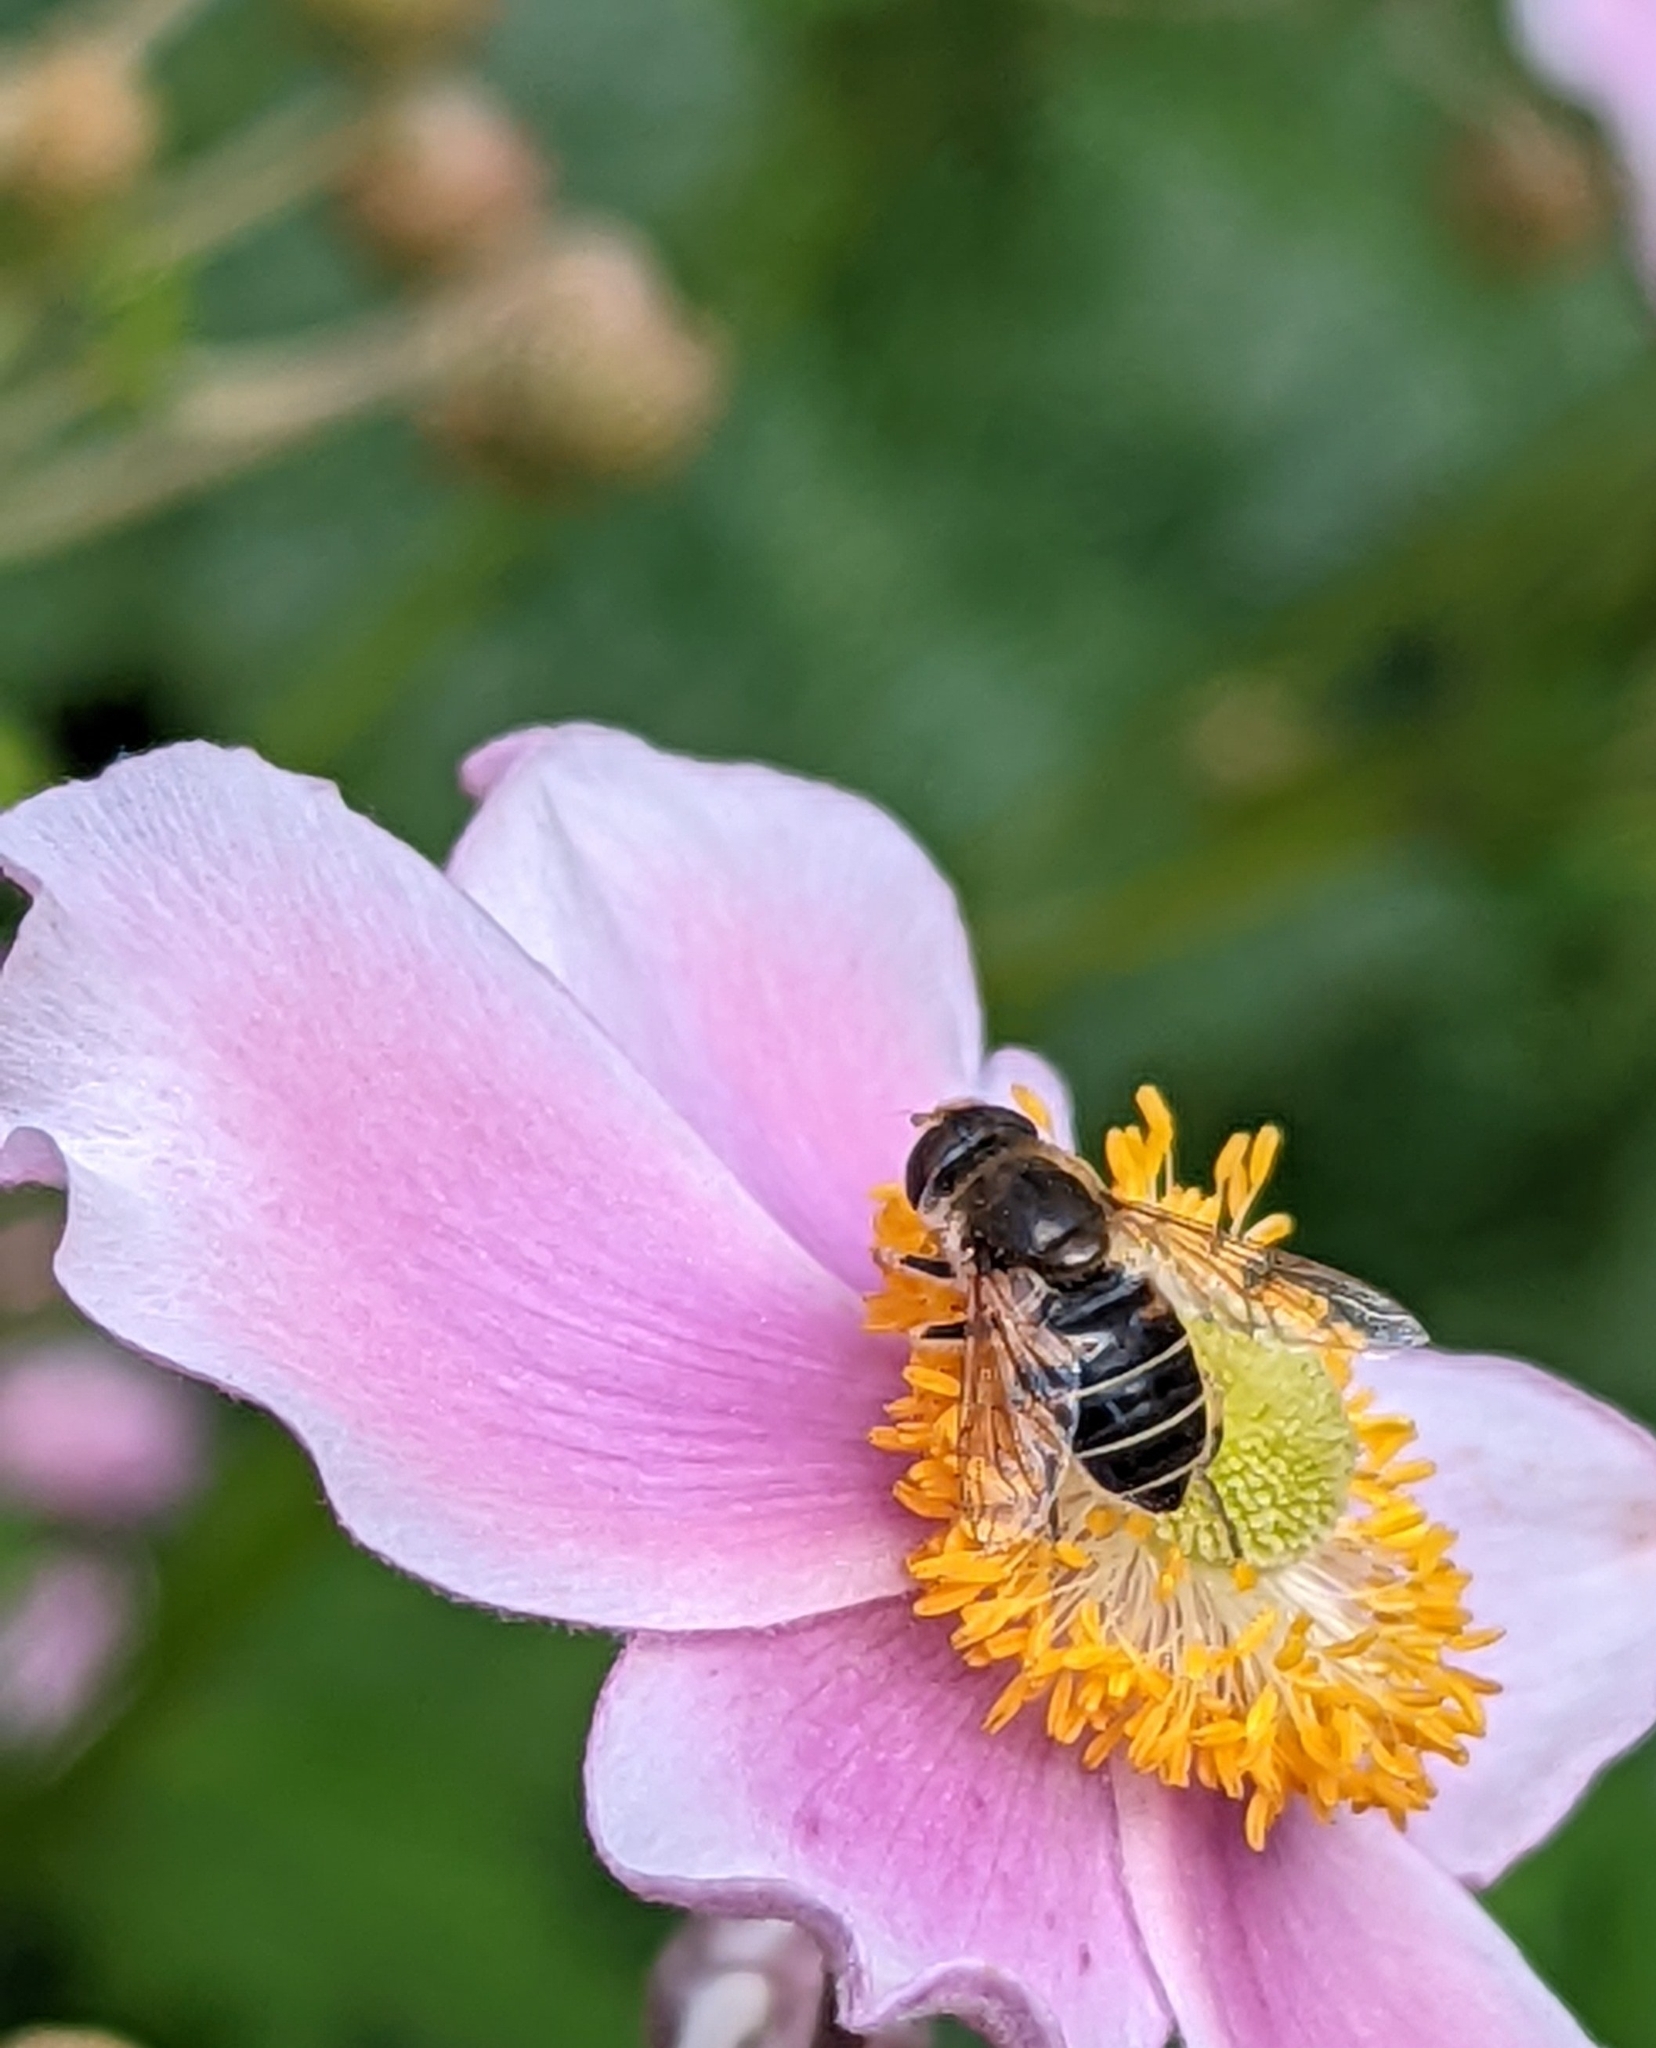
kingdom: Animalia
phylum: Arthropoda
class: Insecta
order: Diptera
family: Syrphidae
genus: Eristalis
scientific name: Eristalis
